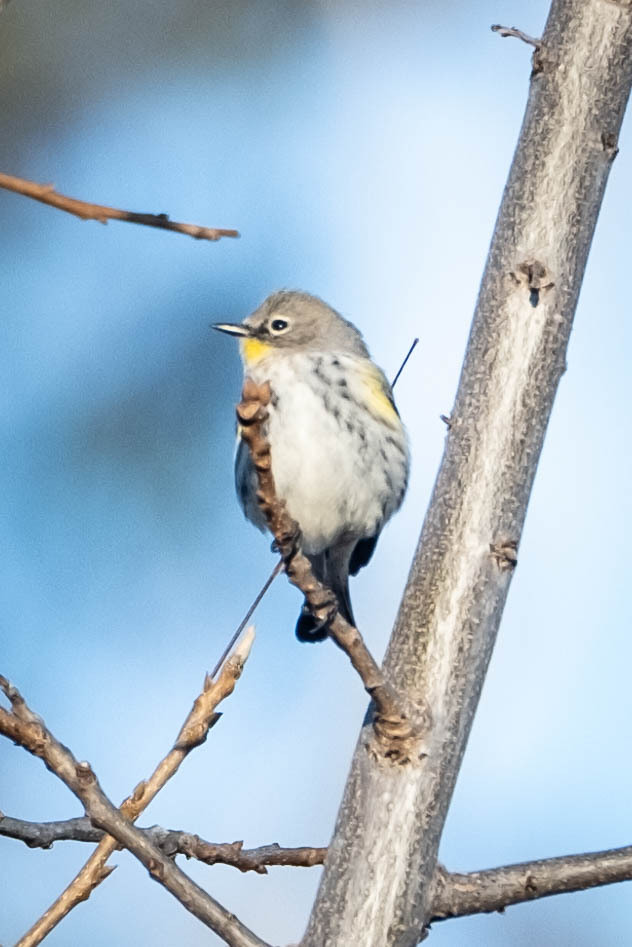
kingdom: Animalia
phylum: Chordata
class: Aves
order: Passeriformes
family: Parulidae
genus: Setophaga
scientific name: Setophaga coronata
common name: Myrtle warbler
